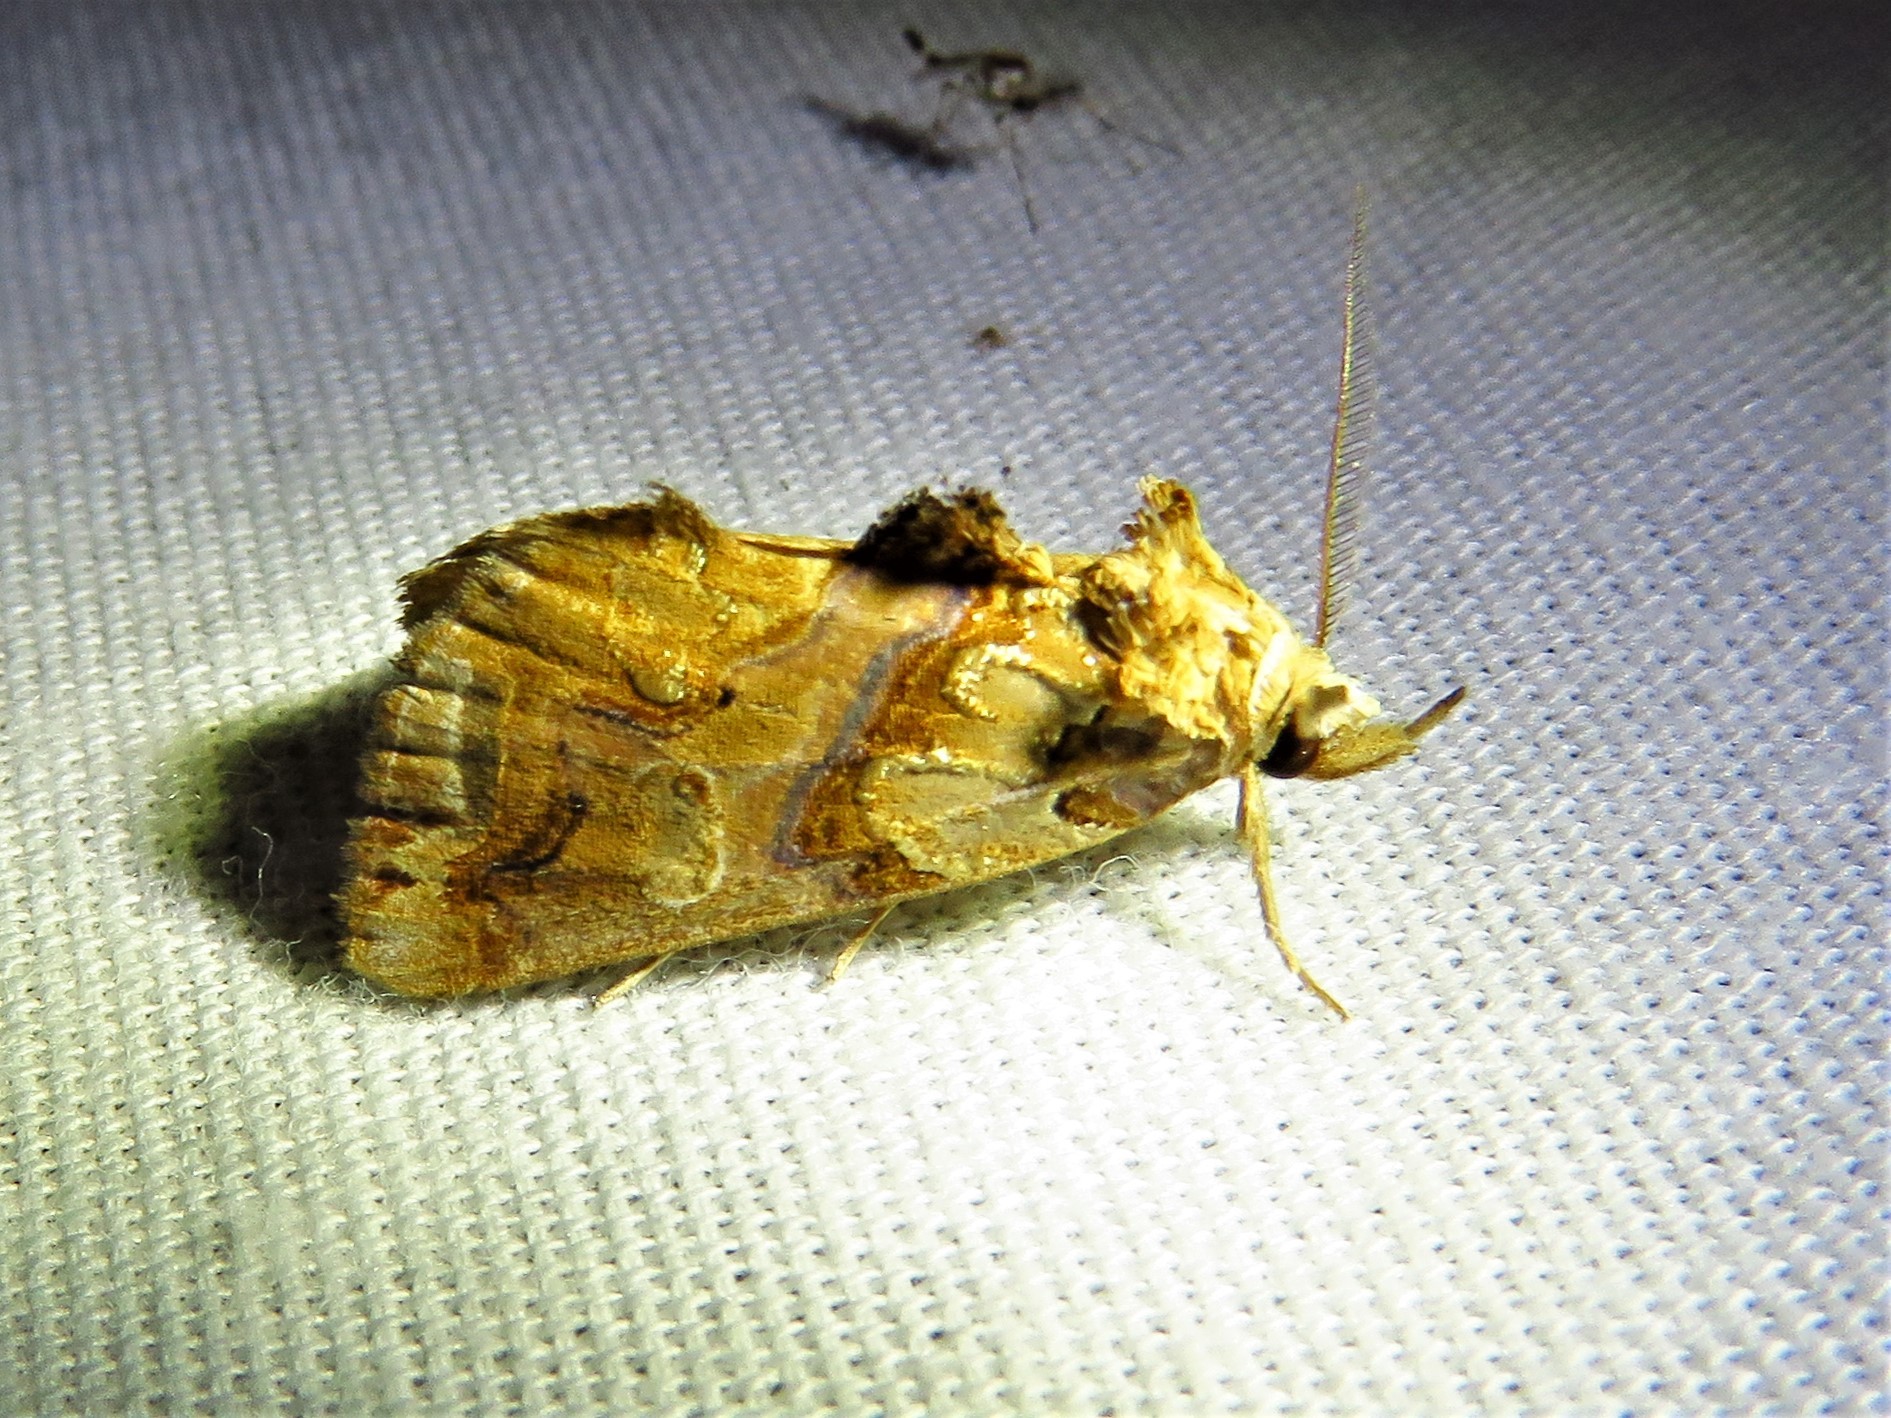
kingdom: Animalia
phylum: Arthropoda
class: Insecta
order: Lepidoptera
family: Erebidae
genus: Plusiodonta
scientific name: Plusiodonta compressipalpis
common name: Moonseed moth
